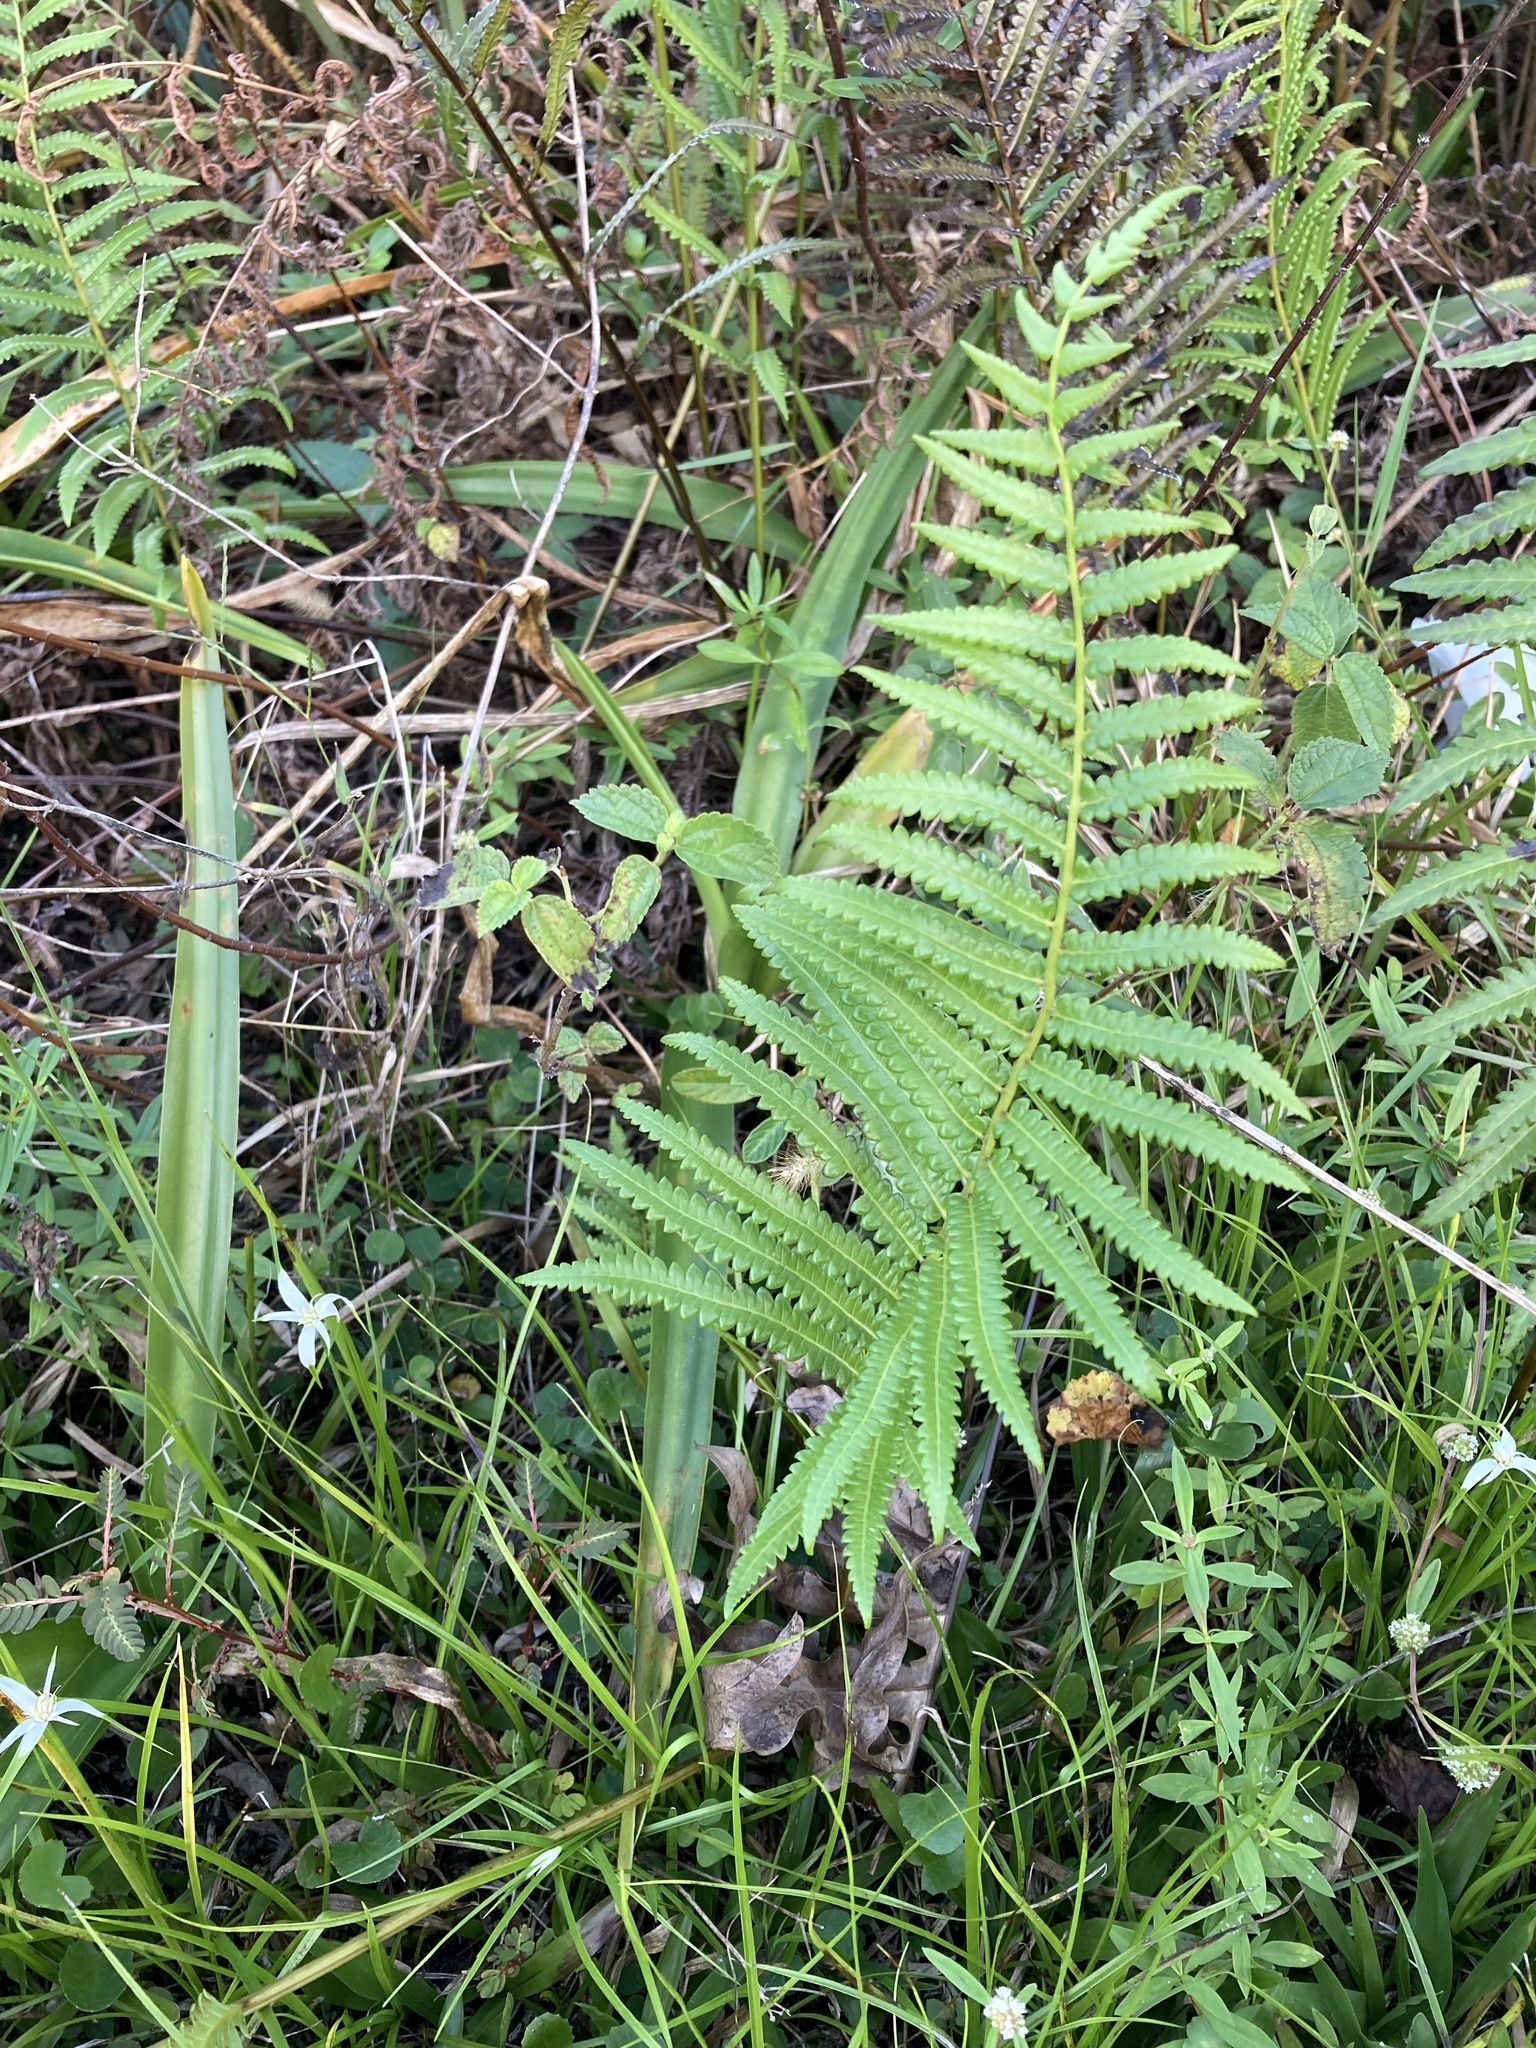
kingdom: Plantae
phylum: Tracheophyta
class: Polypodiopsida
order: Polypodiales
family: Thelypteridaceae
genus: Cyclosorus
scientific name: Cyclosorus interruptus
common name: Neke fern
